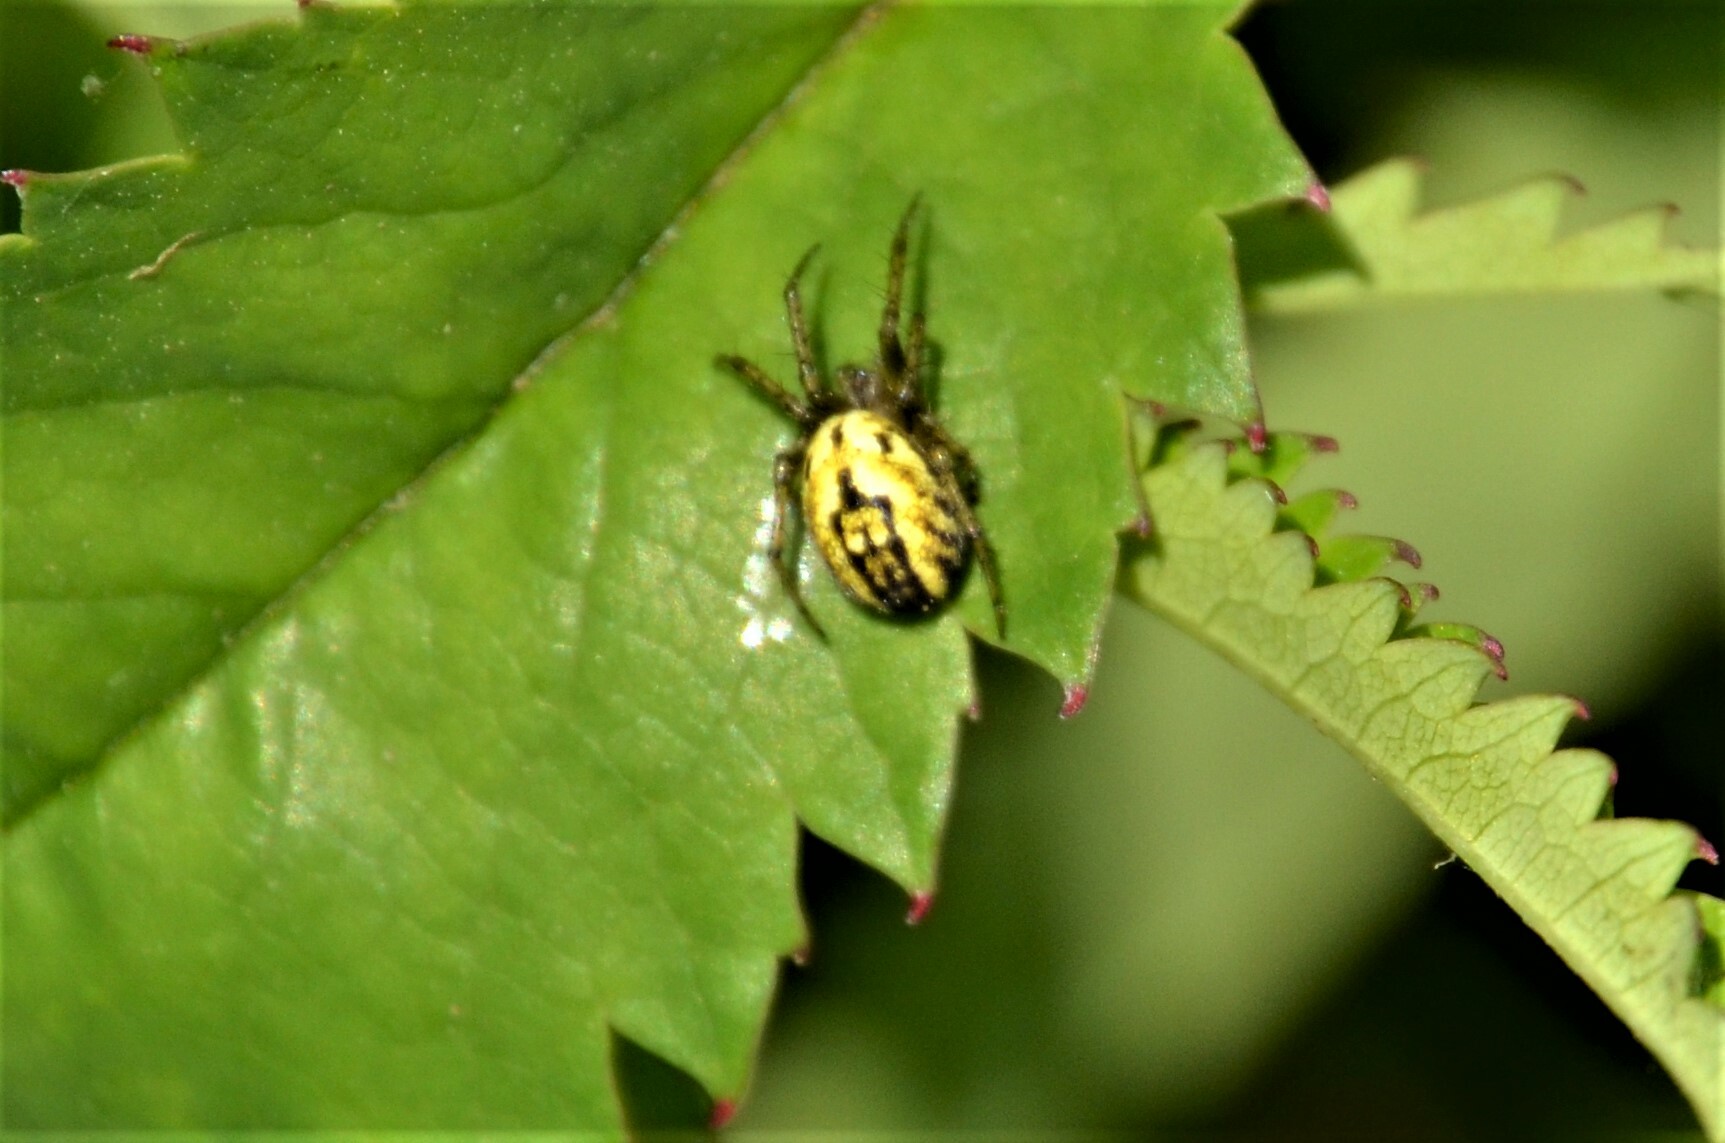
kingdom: Animalia
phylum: Arthropoda
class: Arachnida
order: Araneae
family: Araneidae
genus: Mangora
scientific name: Mangora acalypha
